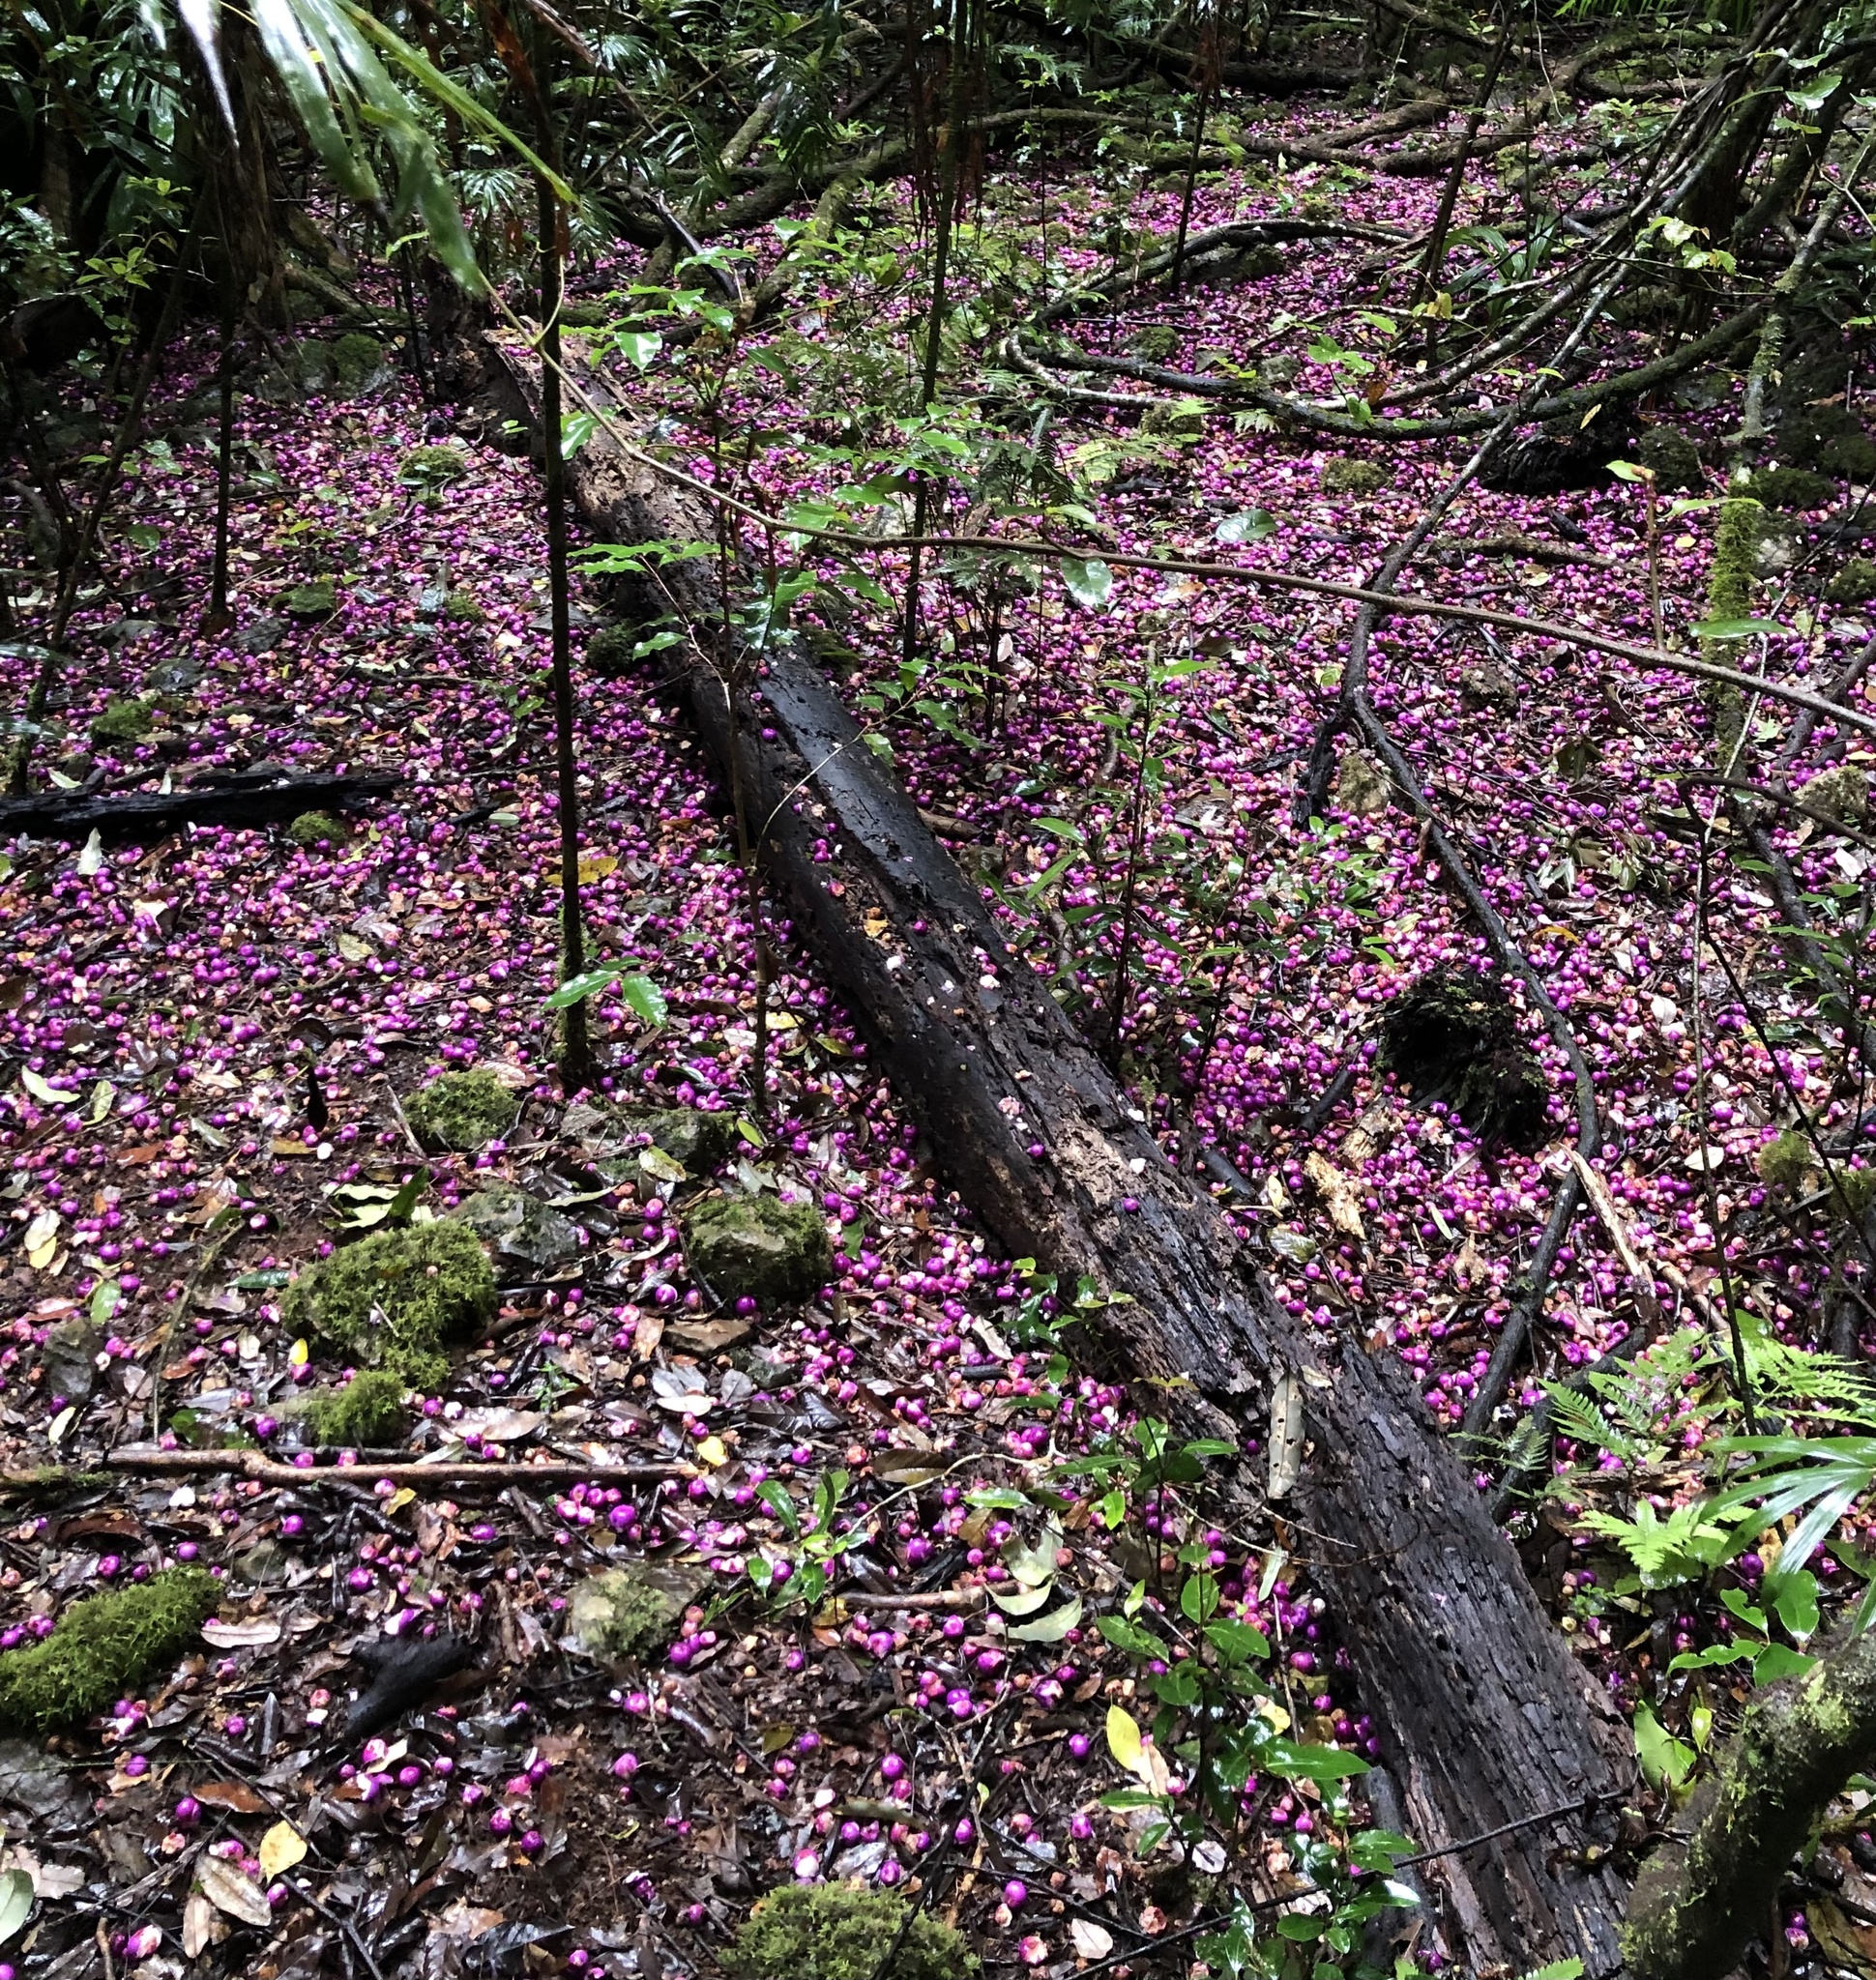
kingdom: Plantae
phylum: Tracheophyta
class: Magnoliopsida
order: Myrtales
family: Myrtaceae
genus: Syzygium
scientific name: Syzygium crebrinerve
